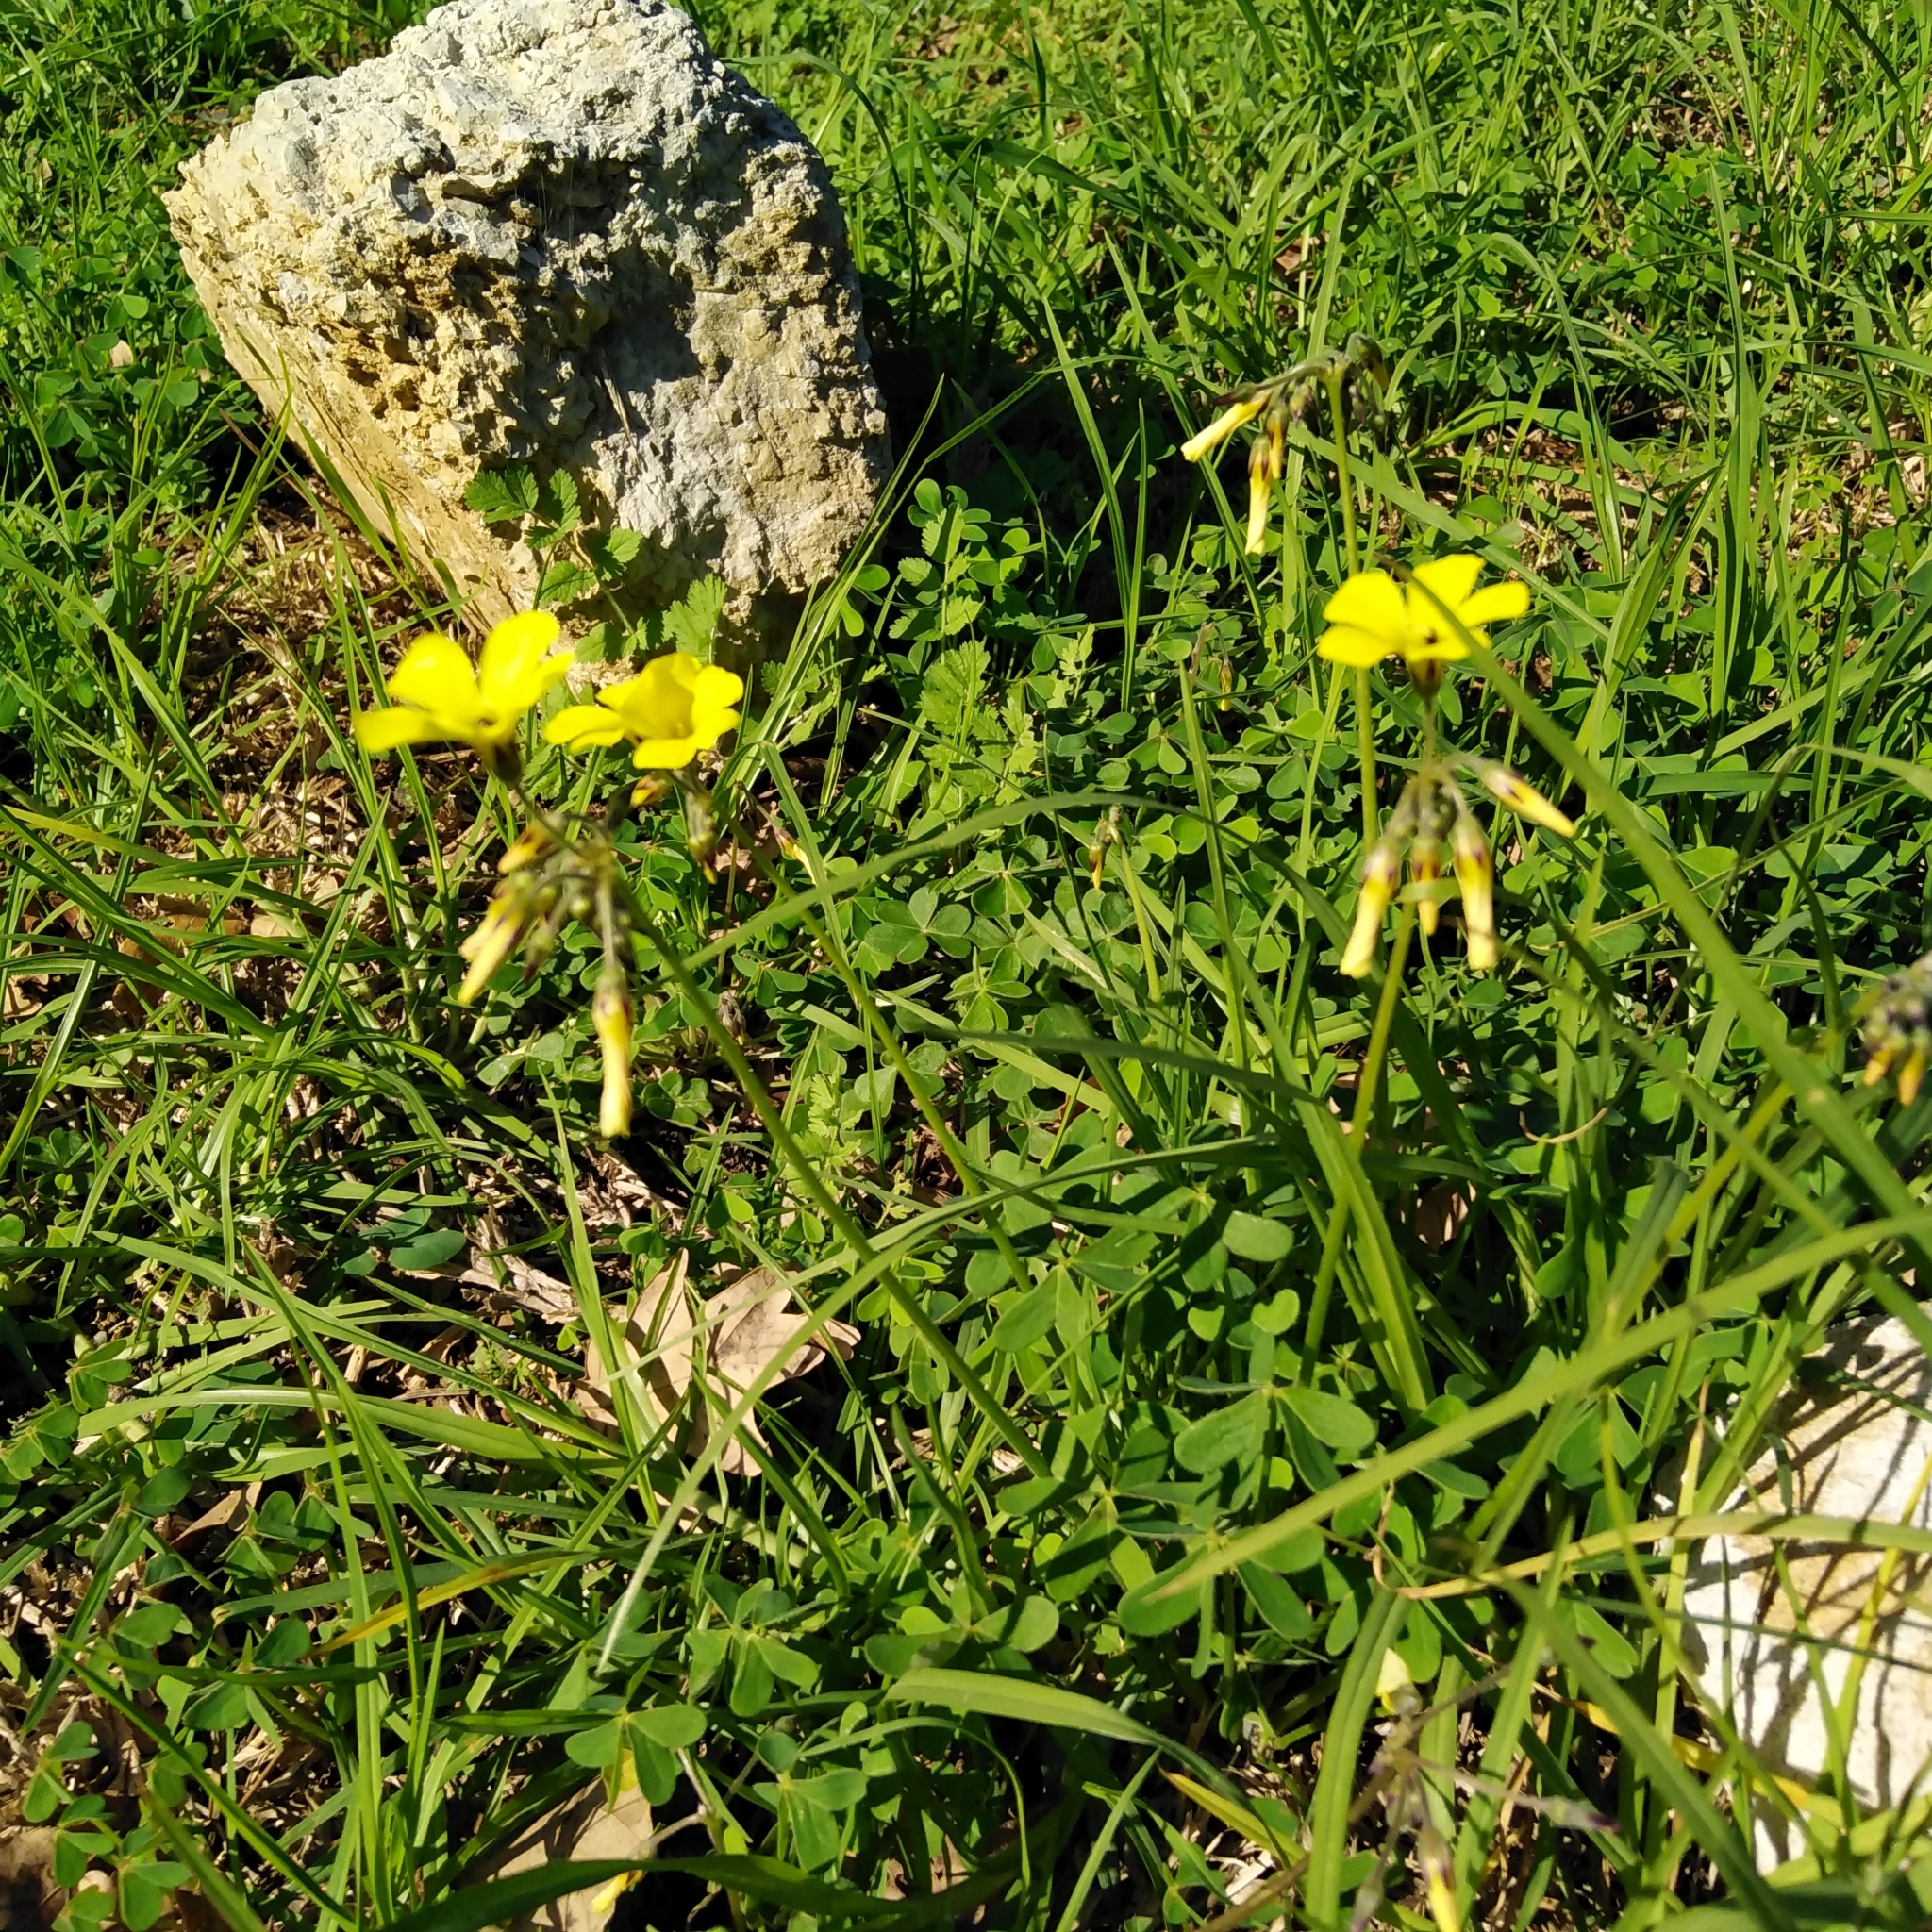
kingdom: Plantae
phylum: Tracheophyta
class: Magnoliopsida
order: Oxalidales
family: Oxalidaceae
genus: Oxalis
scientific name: Oxalis pes-caprae
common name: Bermuda-buttercup
